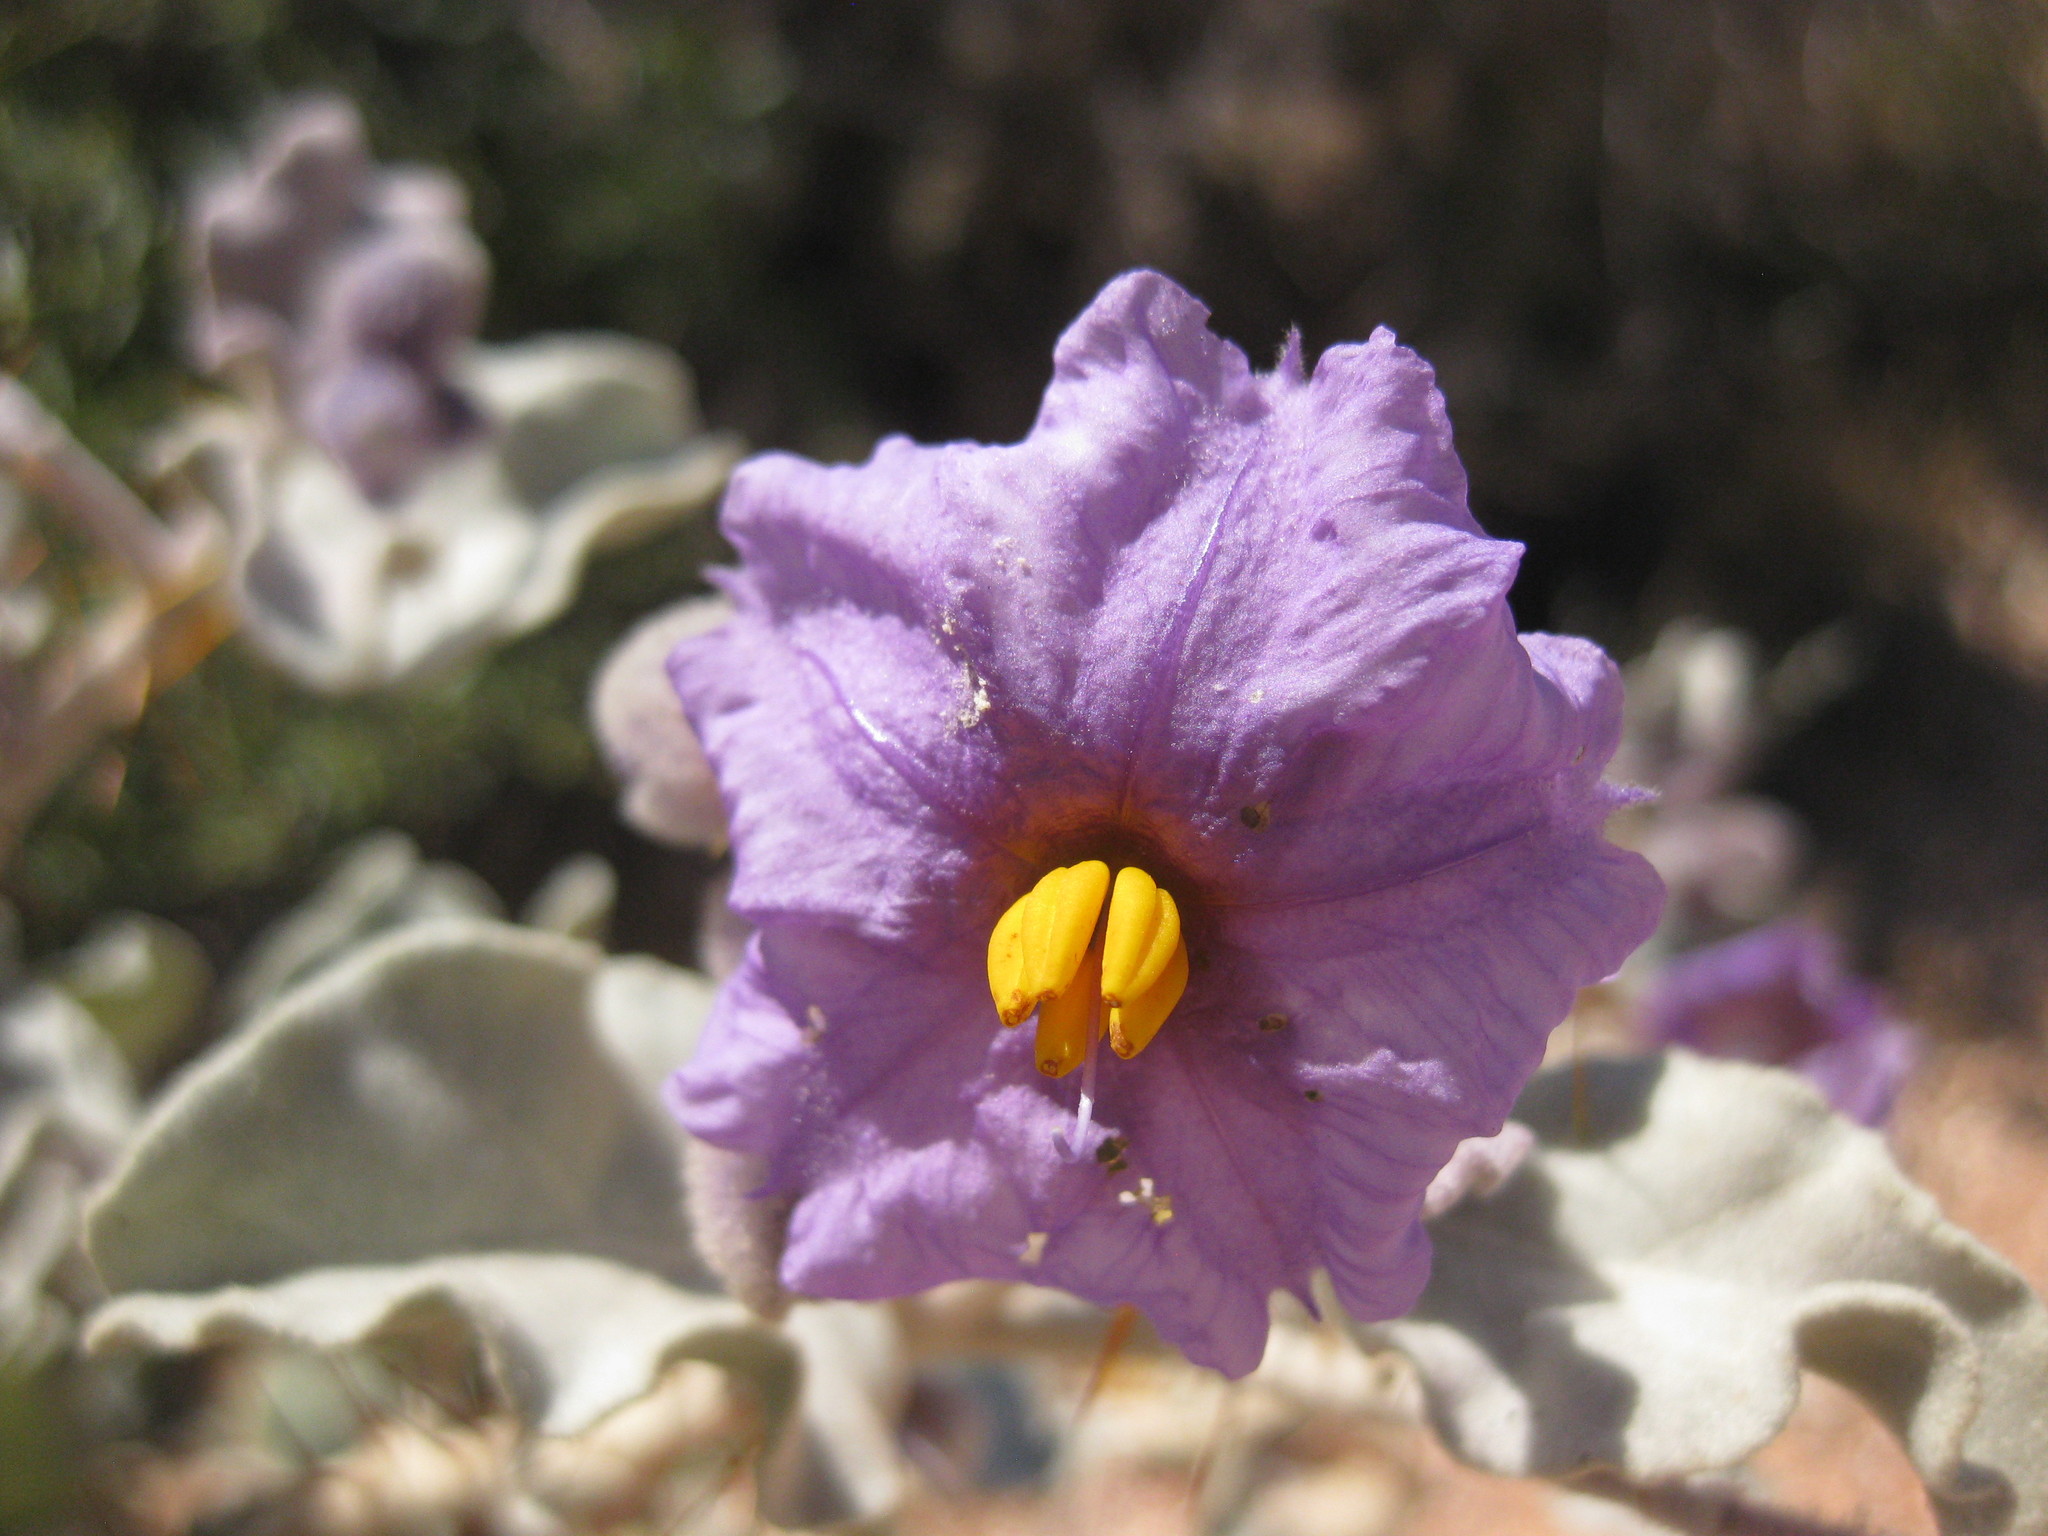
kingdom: Plantae
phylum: Tracheophyta
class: Magnoliopsida
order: Solanales
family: Solanaceae
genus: Solanum
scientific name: Solanum lasiophyllum
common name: Flannelbush
